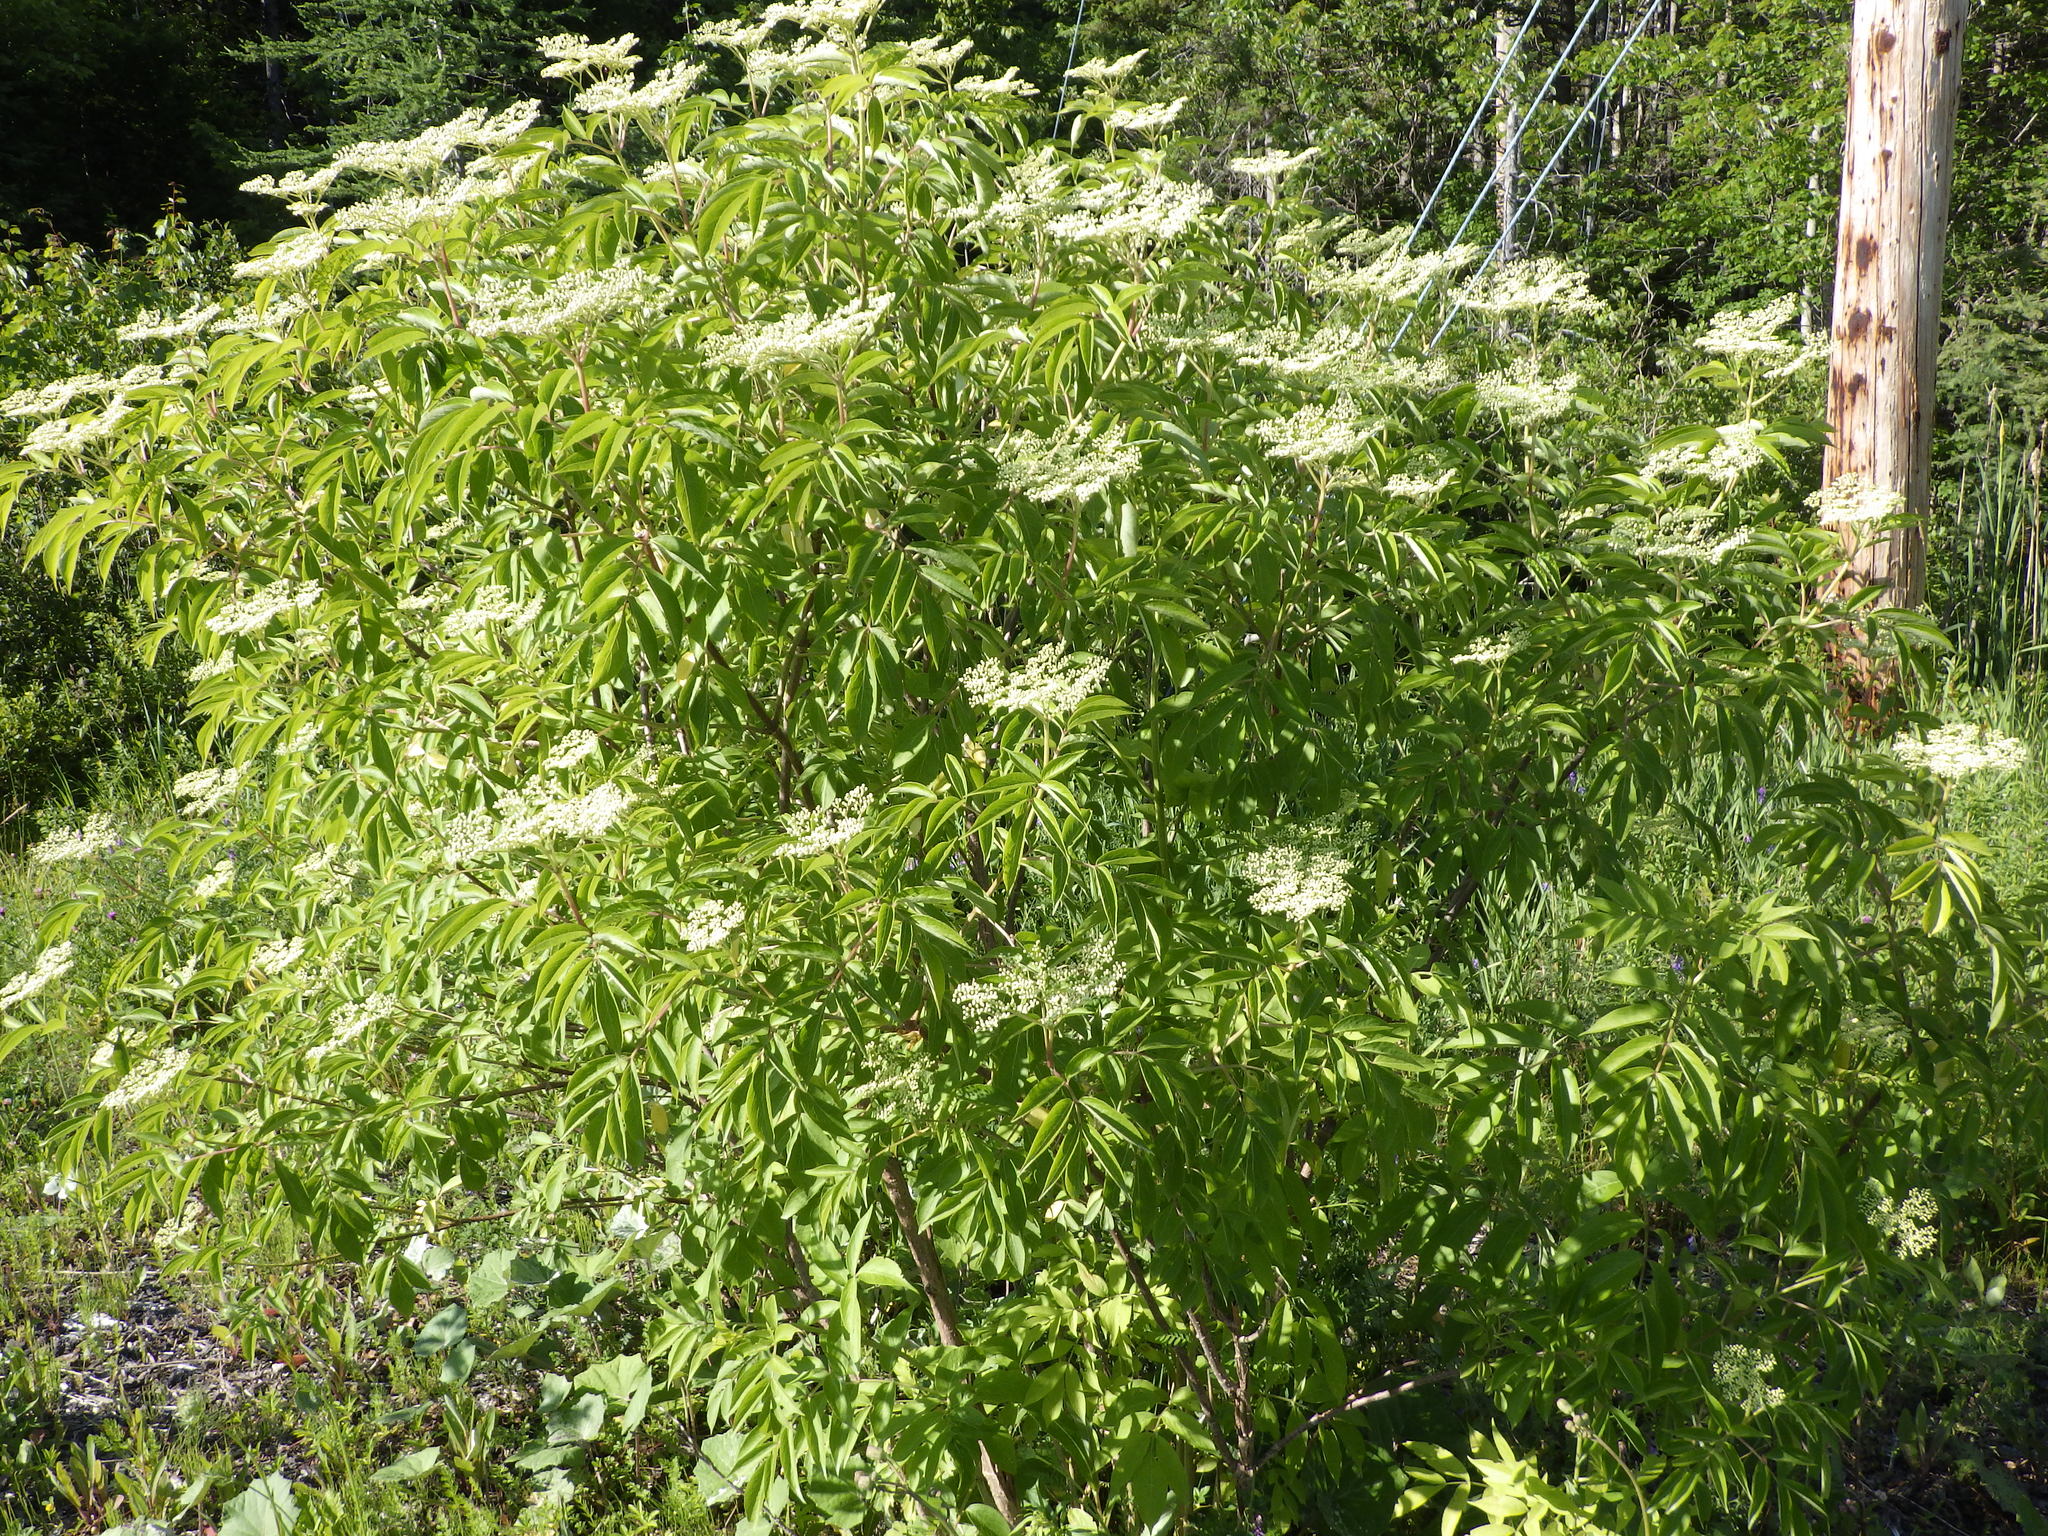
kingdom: Plantae
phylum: Tracheophyta
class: Magnoliopsida
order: Dipsacales
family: Viburnaceae
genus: Sambucus
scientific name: Sambucus canadensis
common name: American elder
